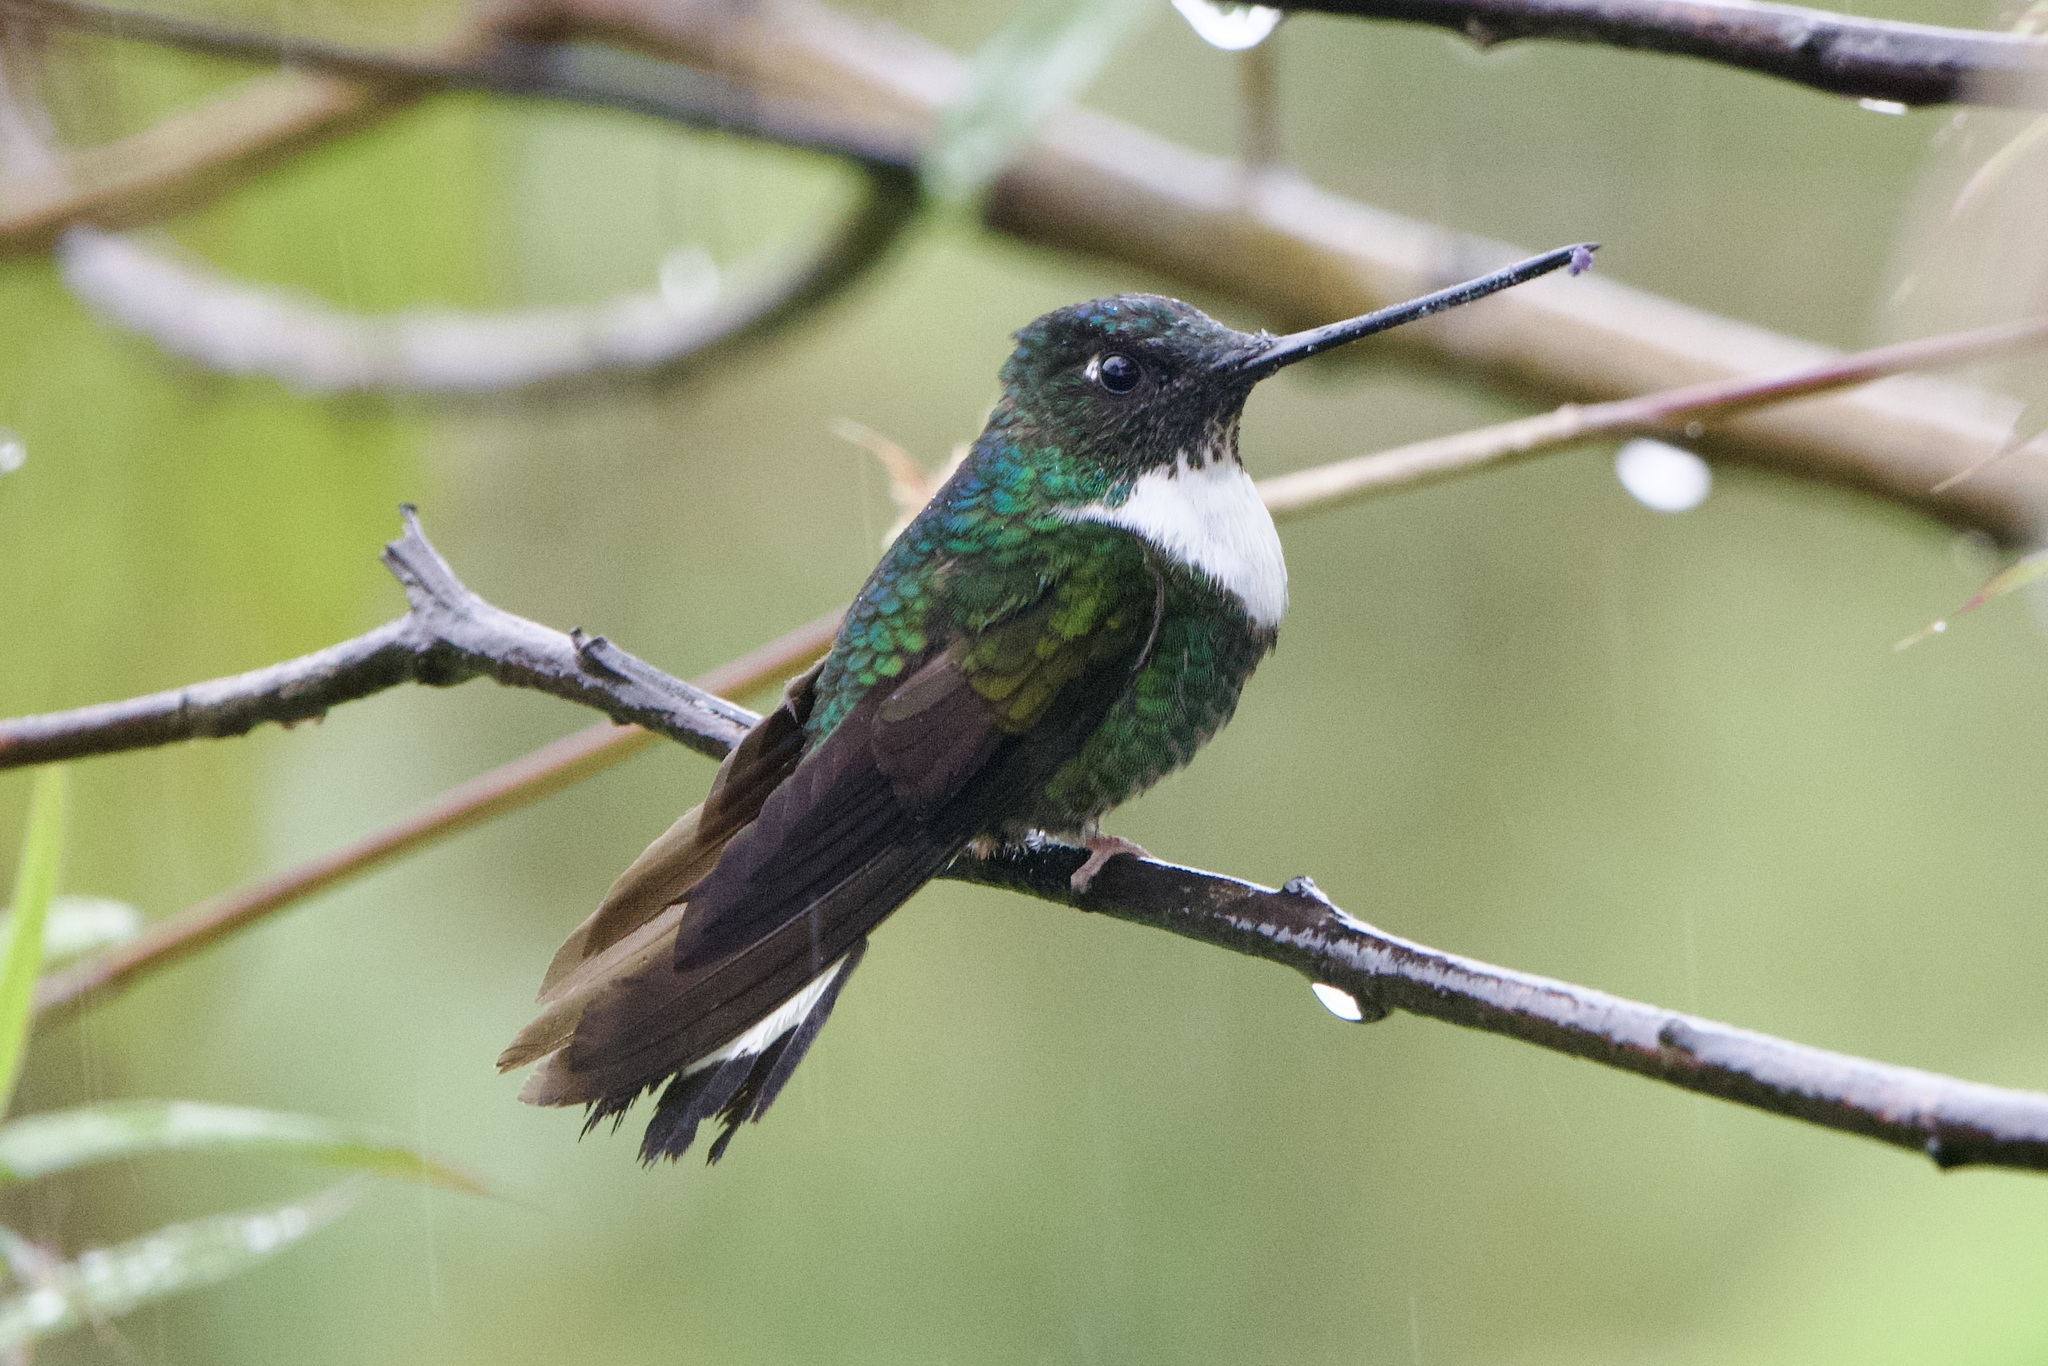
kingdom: Animalia
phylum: Chordata
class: Aves
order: Apodiformes
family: Trochilidae
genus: Coeligena
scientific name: Coeligena torquata
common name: Collared inca
